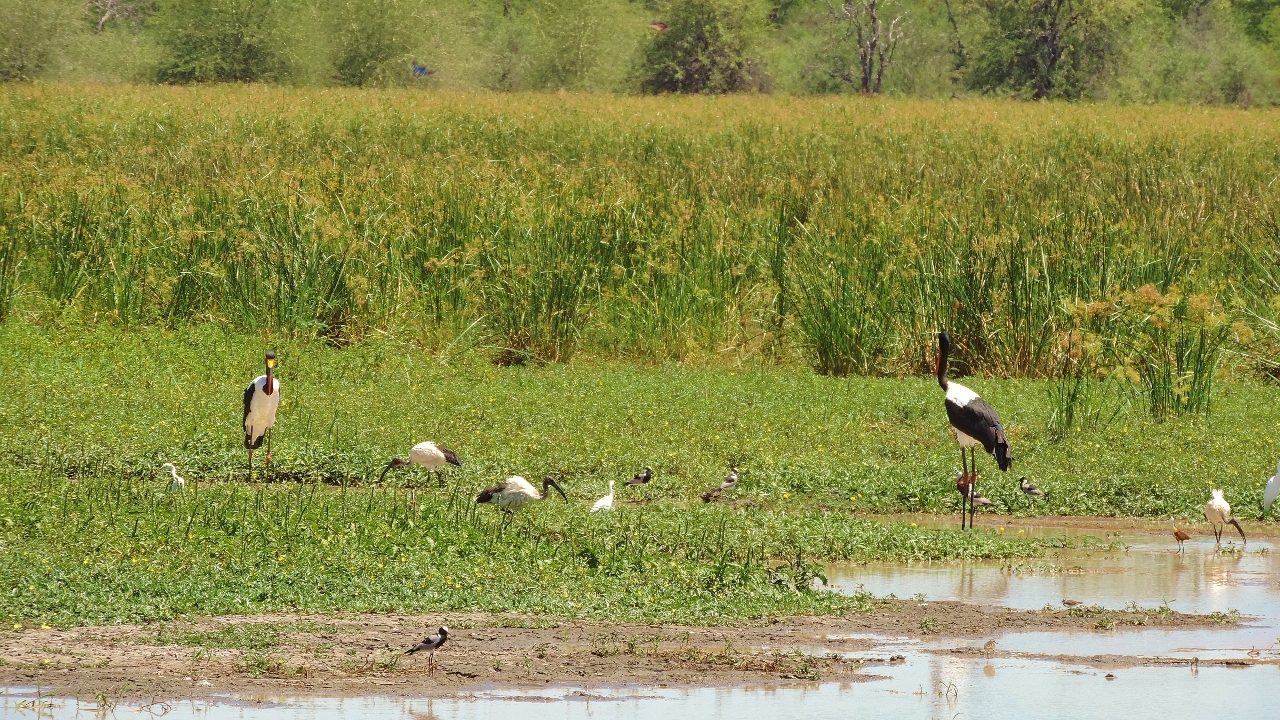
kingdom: Animalia
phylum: Chordata
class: Aves
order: Ciconiiformes
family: Ciconiidae
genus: Ephippiorhynchus
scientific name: Ephippiorhynchus senegalensis
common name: Saddle-billed stork
